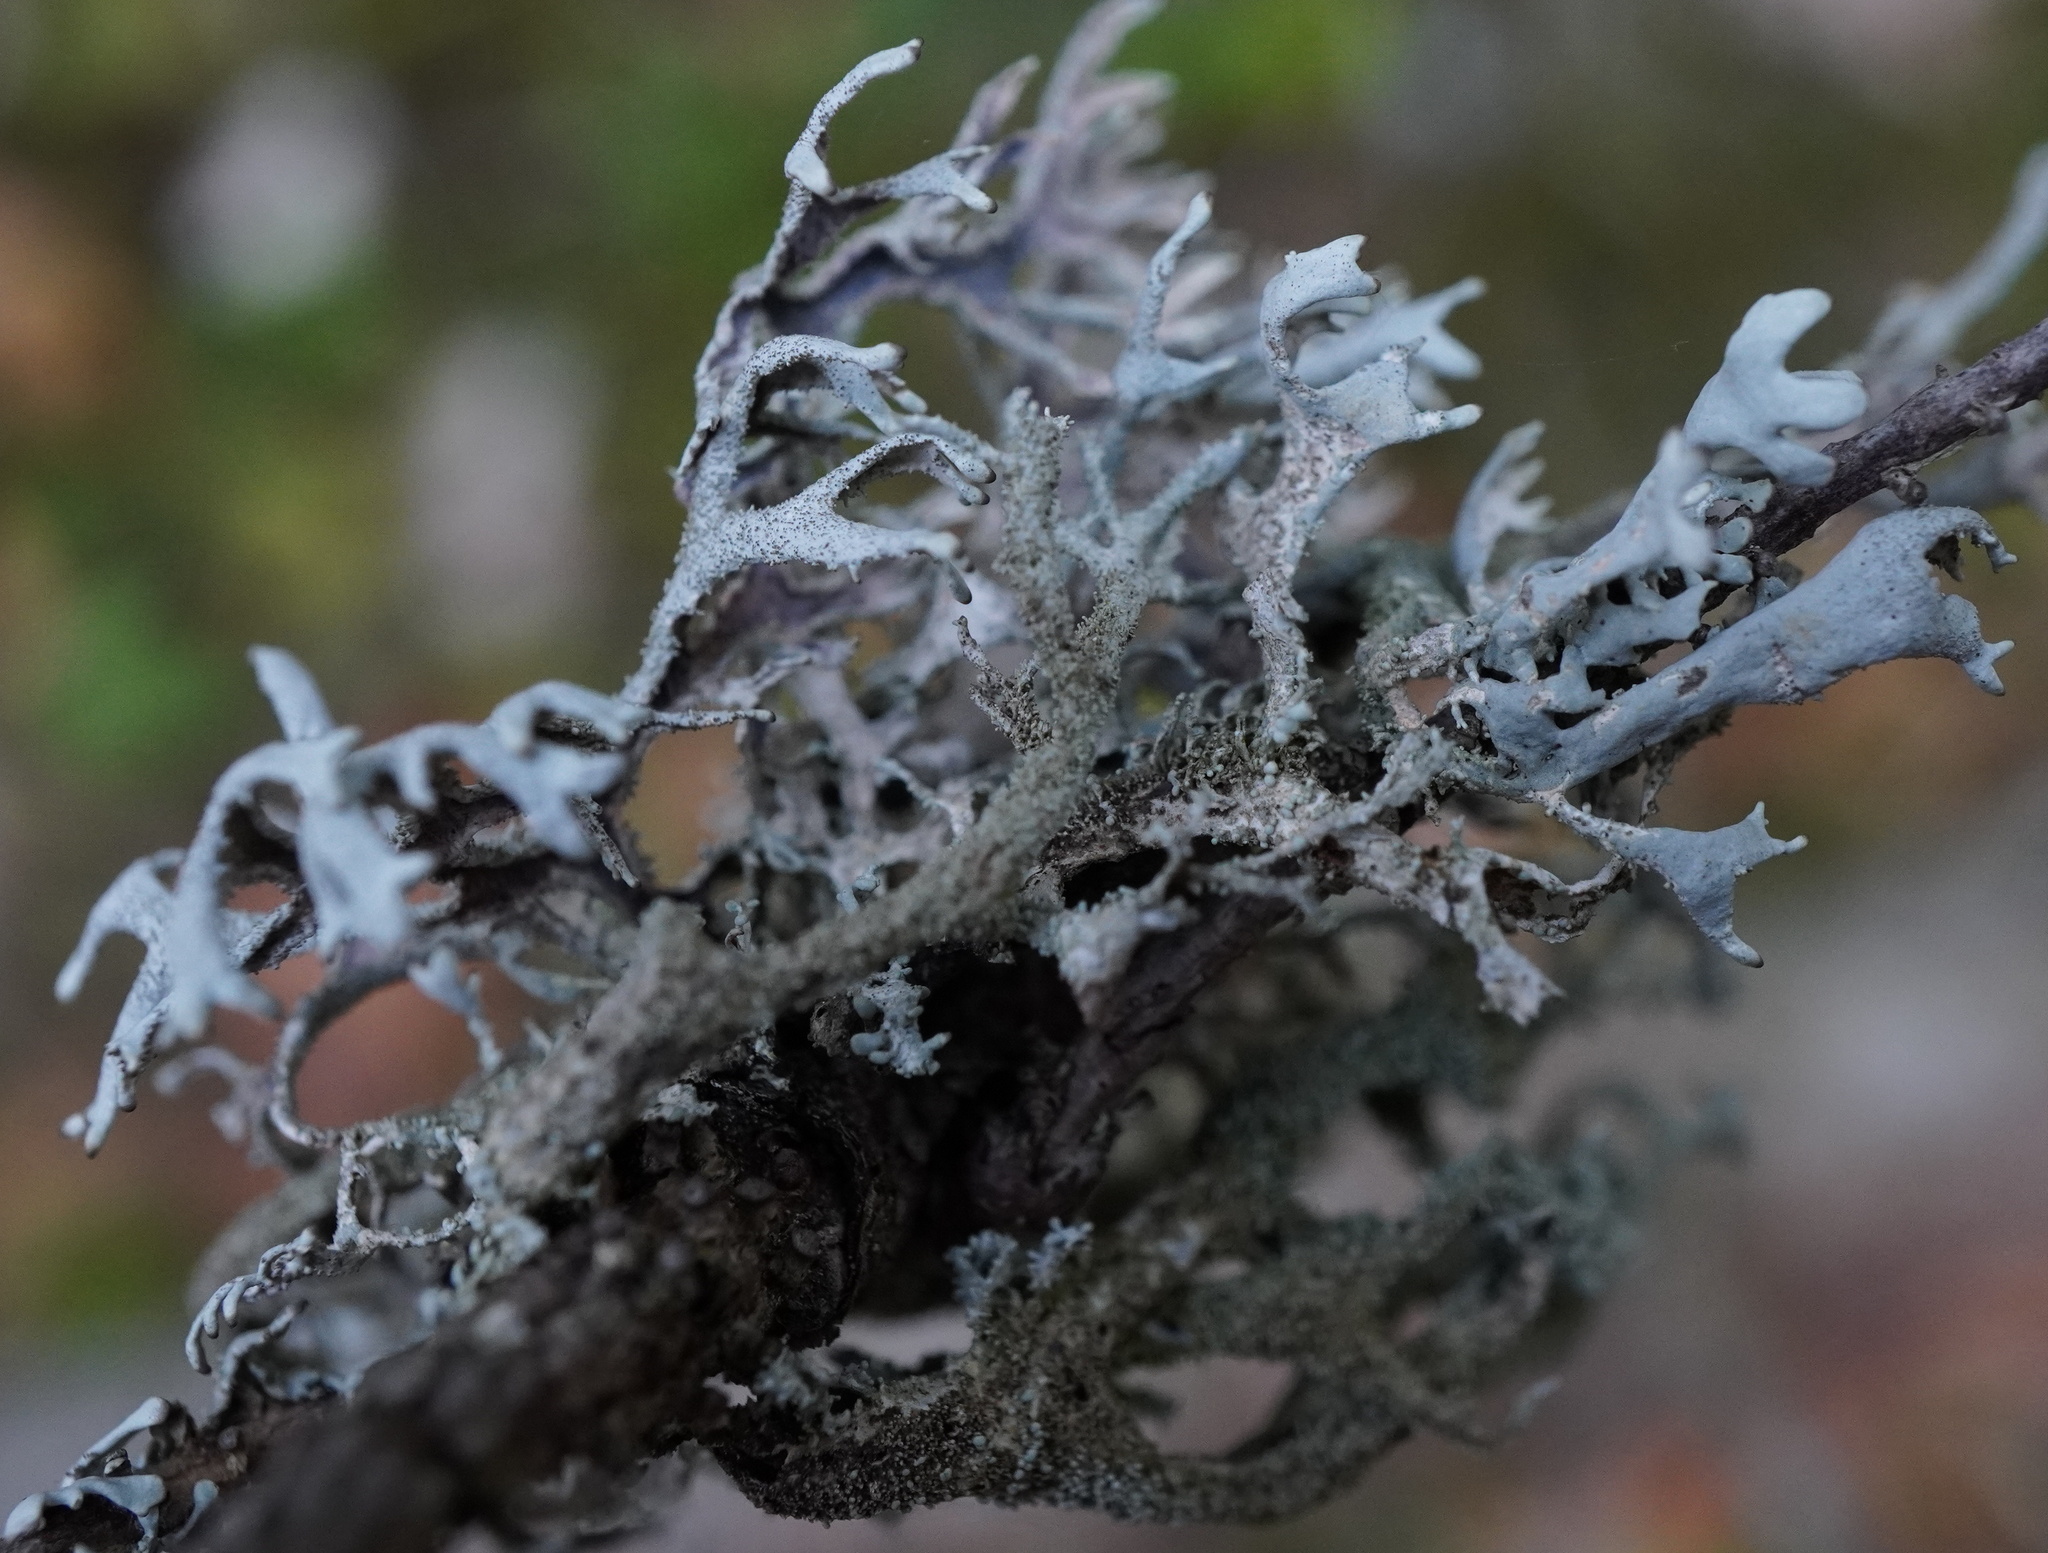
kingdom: Fungi
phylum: Ascomycota
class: Lecanoromycetes
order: Lecanorales
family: Parmeliaceae
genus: Pseudevernia
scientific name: Pseudevernia furfuracea
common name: Tree moss
